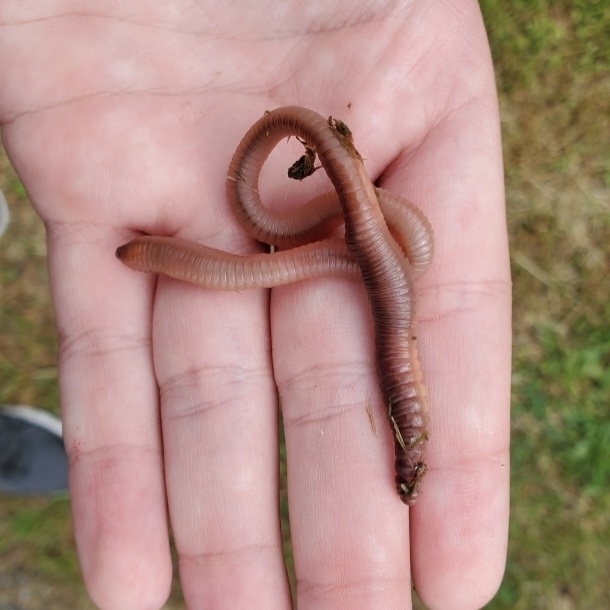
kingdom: Animalia
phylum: Annelida
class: Clitellata
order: Crassiclitellata
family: Lumbricidae
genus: Lumbricus
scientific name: Lumbricus terrestris
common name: Common earthworm
